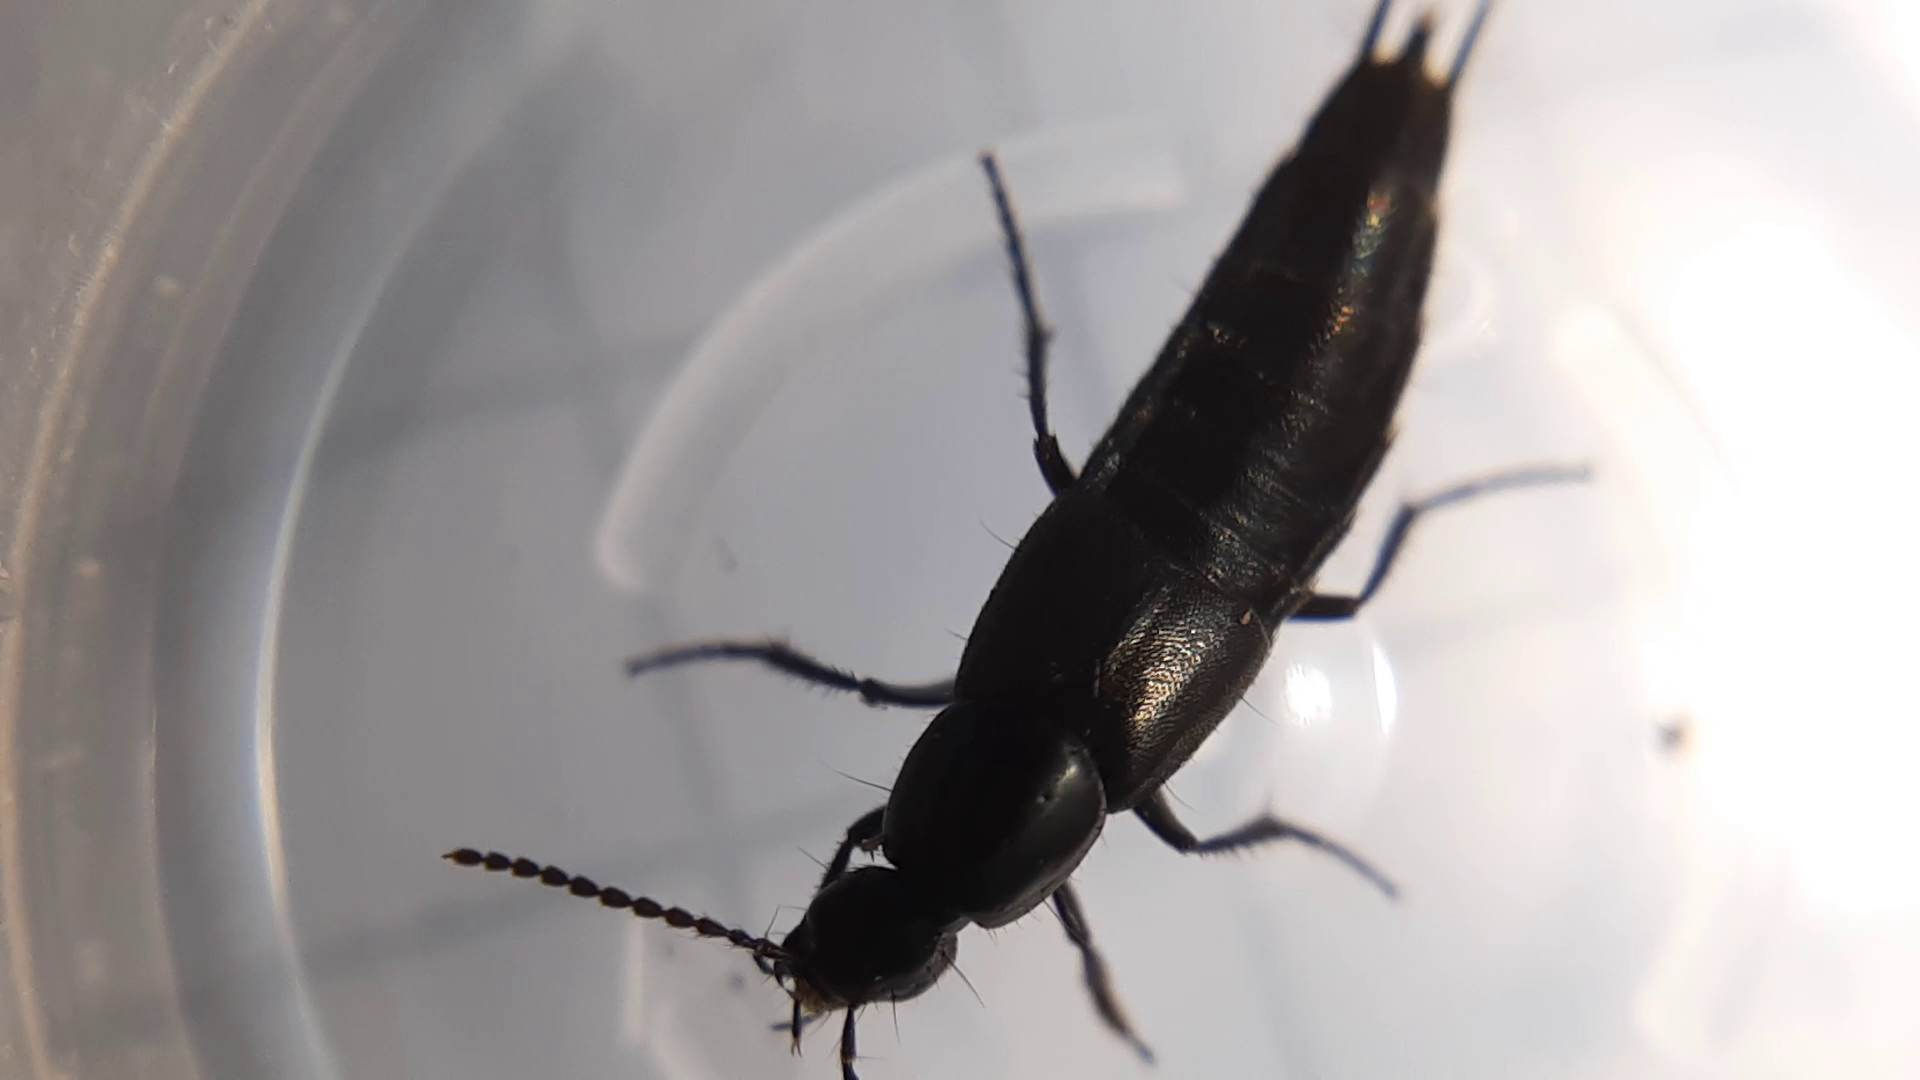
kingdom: Animalia
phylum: Arthropoda
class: Insecta
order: Coleoptera
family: Staphylinidae
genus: Philonthus
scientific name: Philonthus cognatus
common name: Staph beetle
